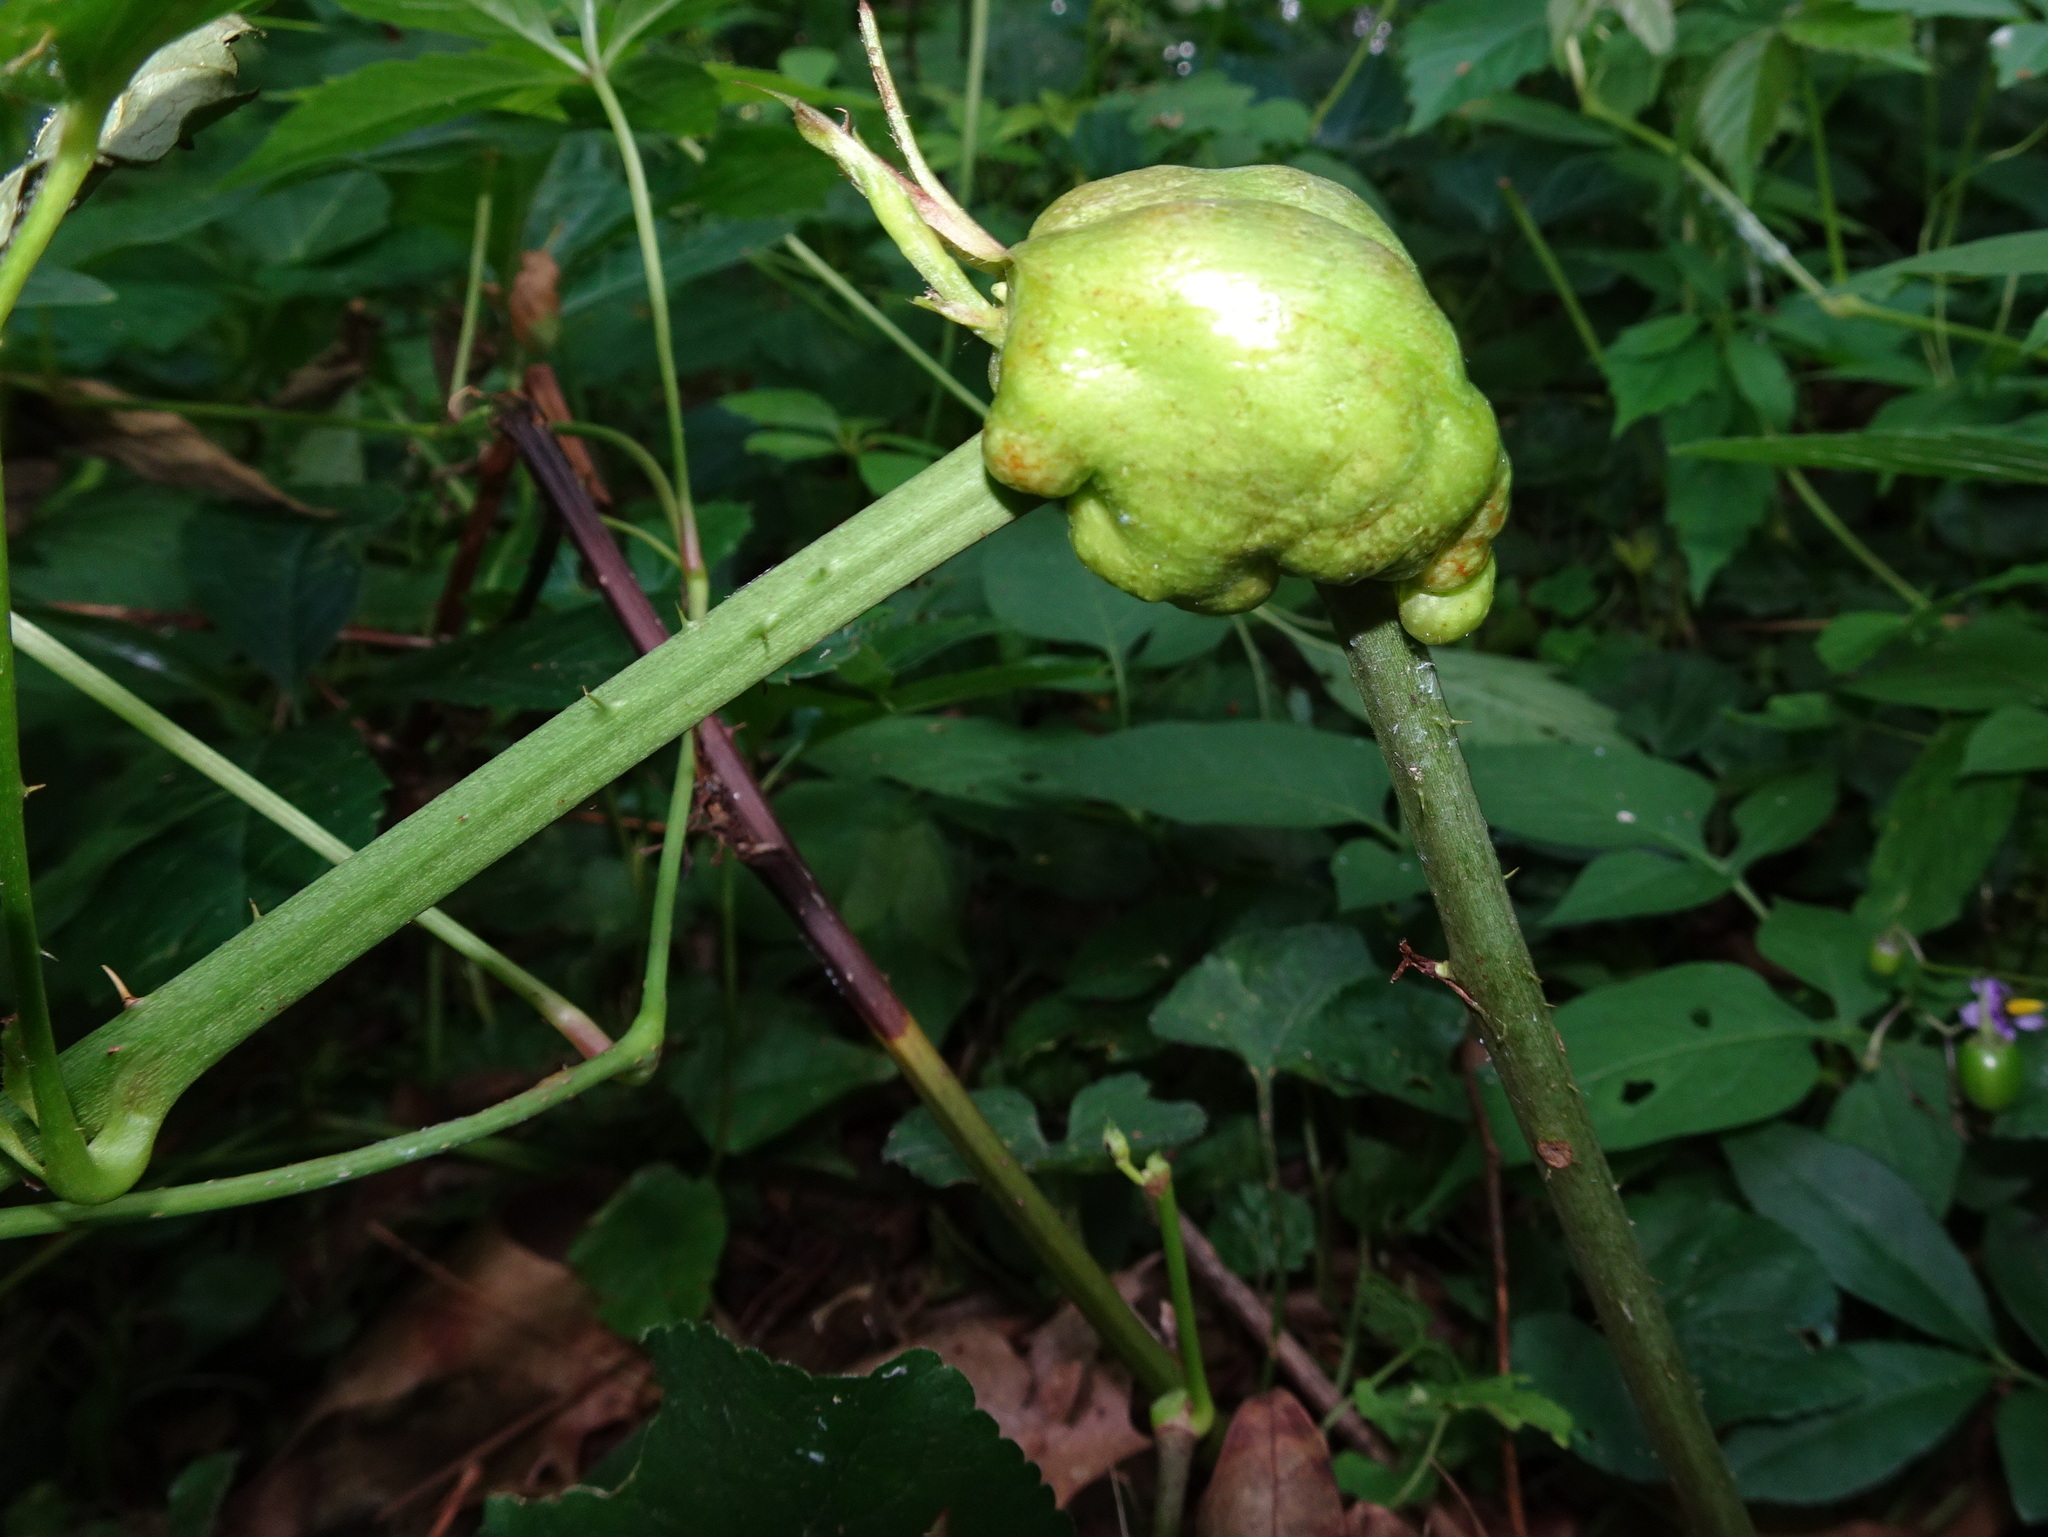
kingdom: Animalia
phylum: Arthropoda
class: Insecta
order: Hymenoptera
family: Cynipidae
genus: Diastrophus
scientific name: Diastrophus
